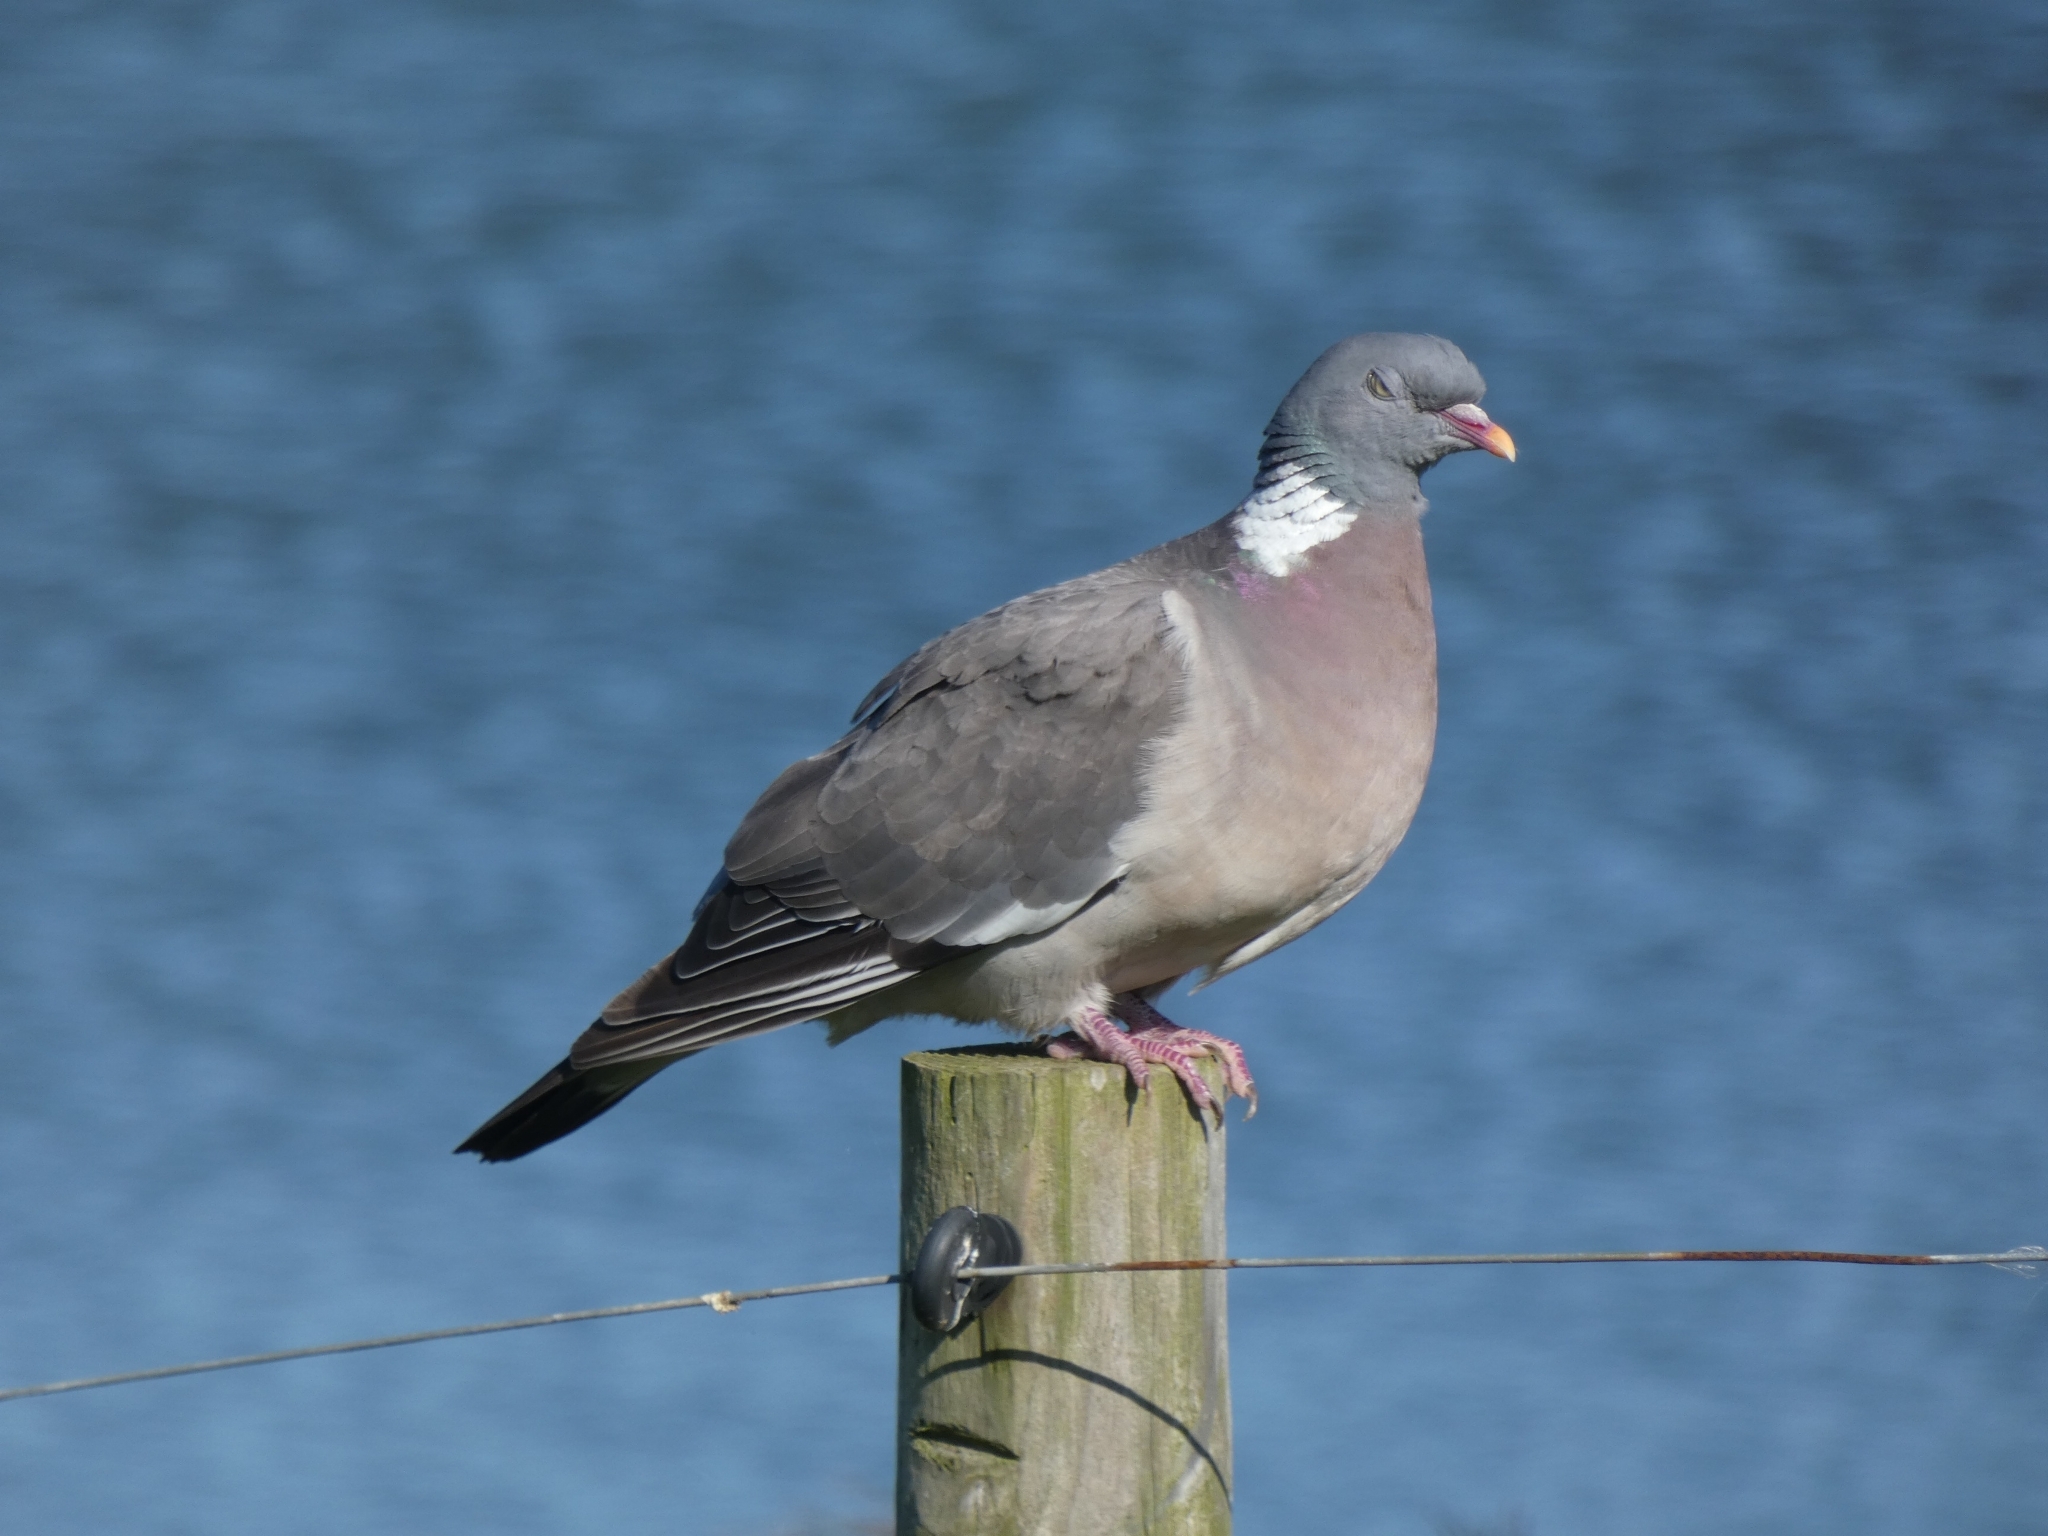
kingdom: Animalia
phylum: Chordata
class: Aves
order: Columbiformes
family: Columbidae
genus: Columba
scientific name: Columba palumbus
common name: Common wood pigeon
